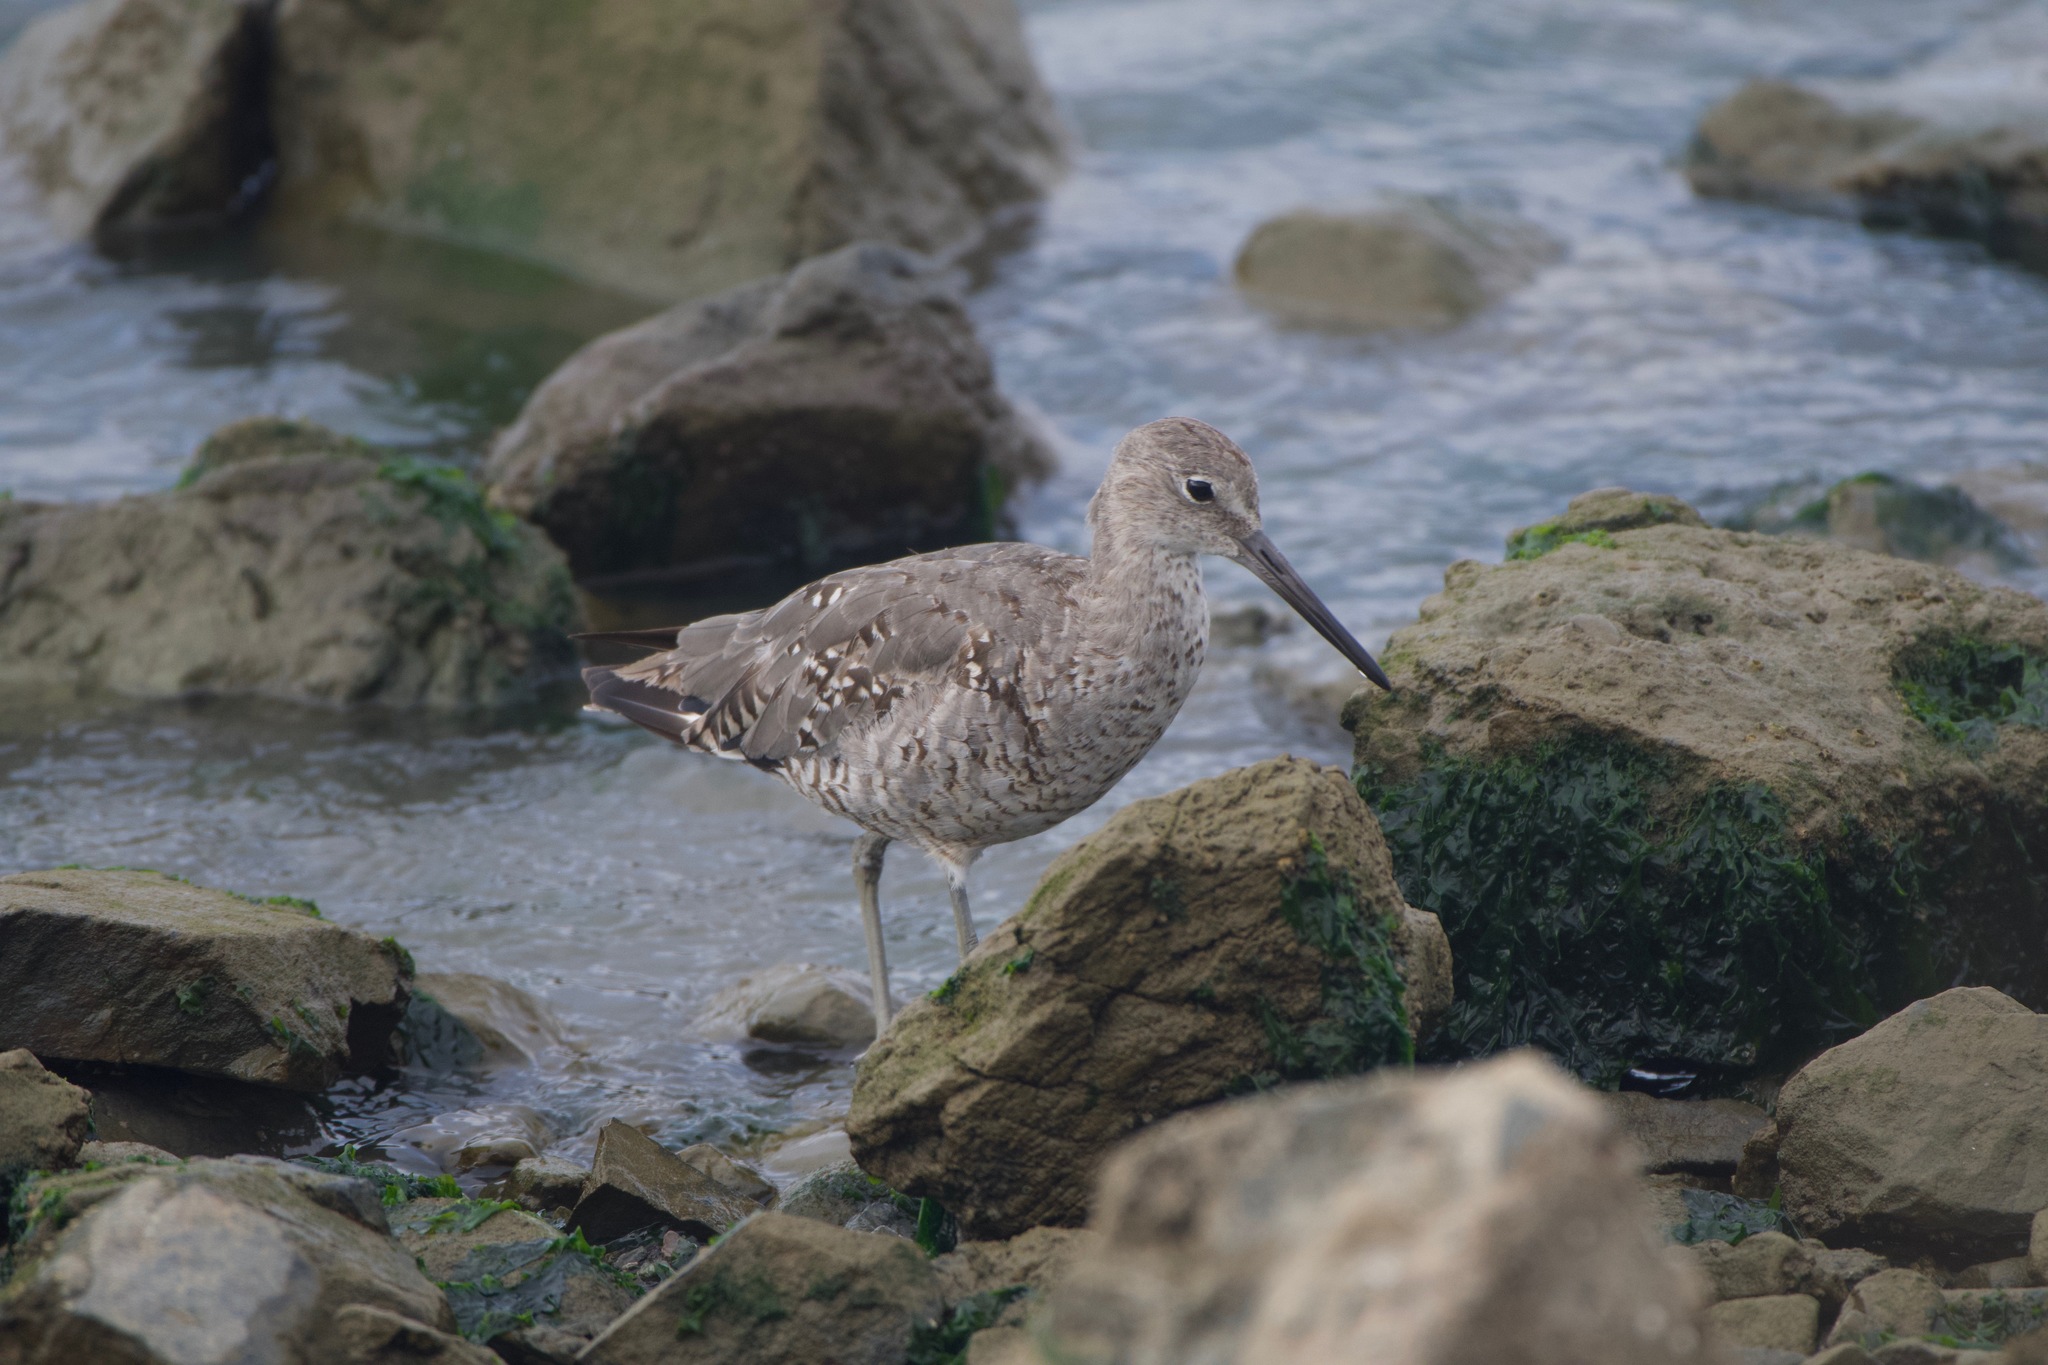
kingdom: Animalia
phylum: Chordata
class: Aves
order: Charadriiformes
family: Scolopacidae
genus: Tringa
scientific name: Tringa semipalmata
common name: Willet
